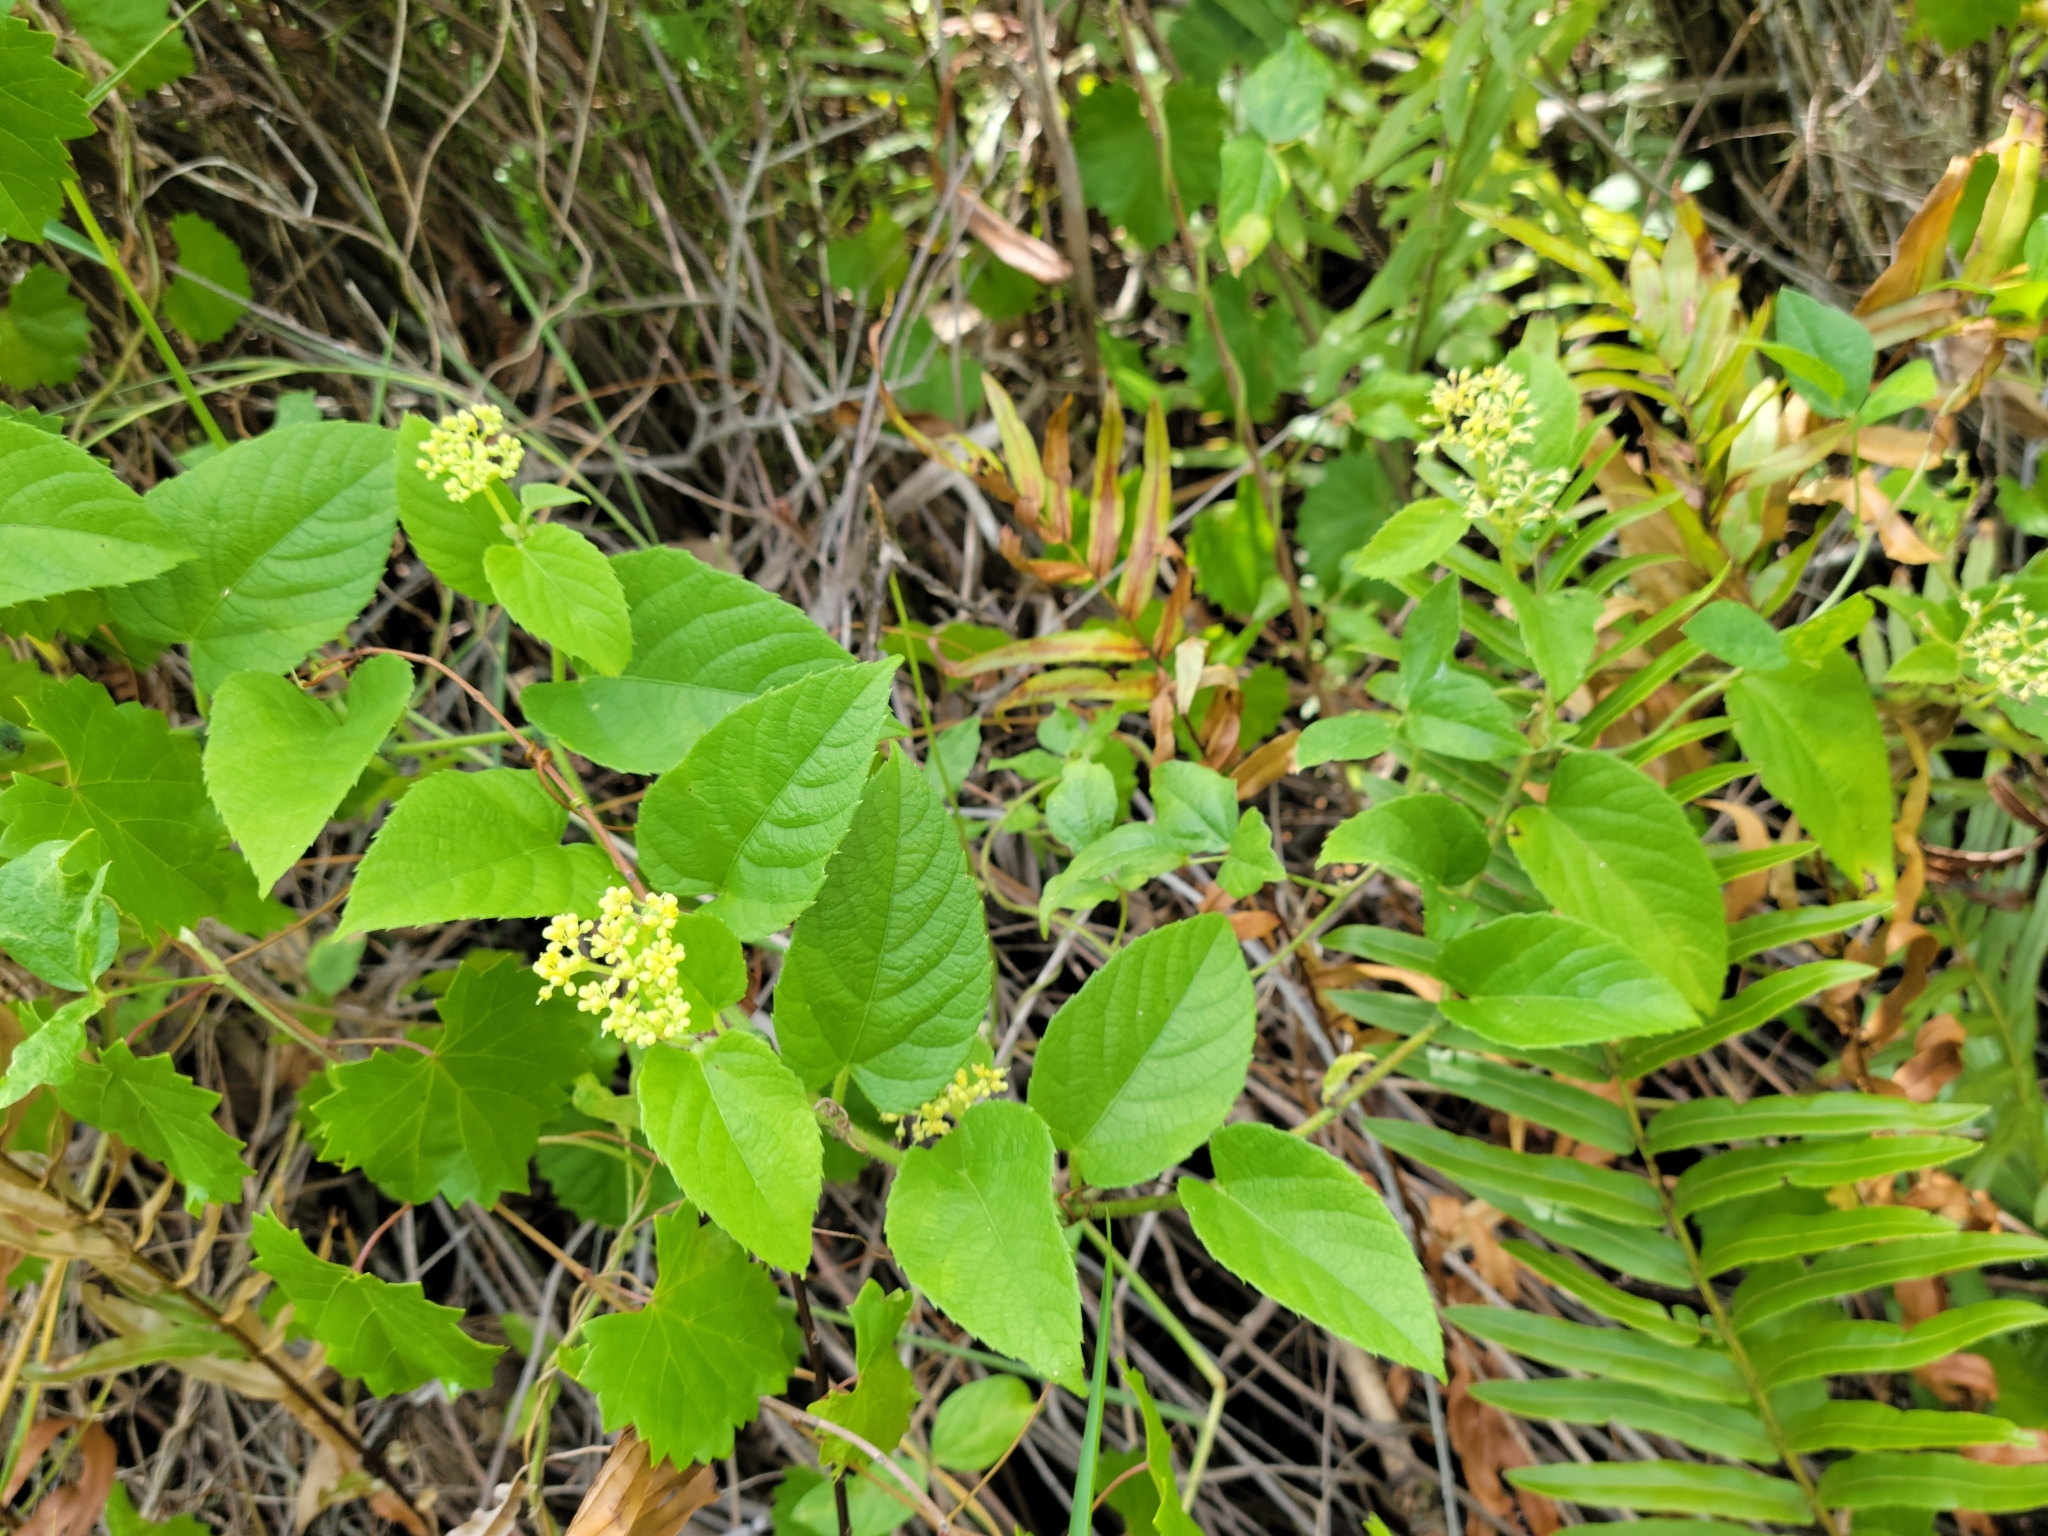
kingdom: Plantae
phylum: Tracheophyta
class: Magnoliopsida
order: Vitales
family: Vitaceae
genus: Cissus
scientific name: Cissus verticillata
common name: Princess vine
